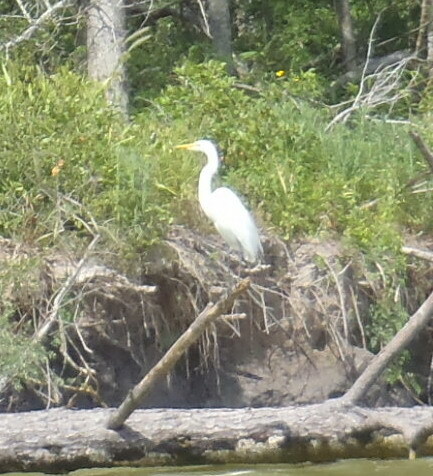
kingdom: Animalia
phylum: Chordata
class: Aves
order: Pelecaniformes
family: Ardeidae
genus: Ardea
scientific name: Ardea alba
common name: Great egret
